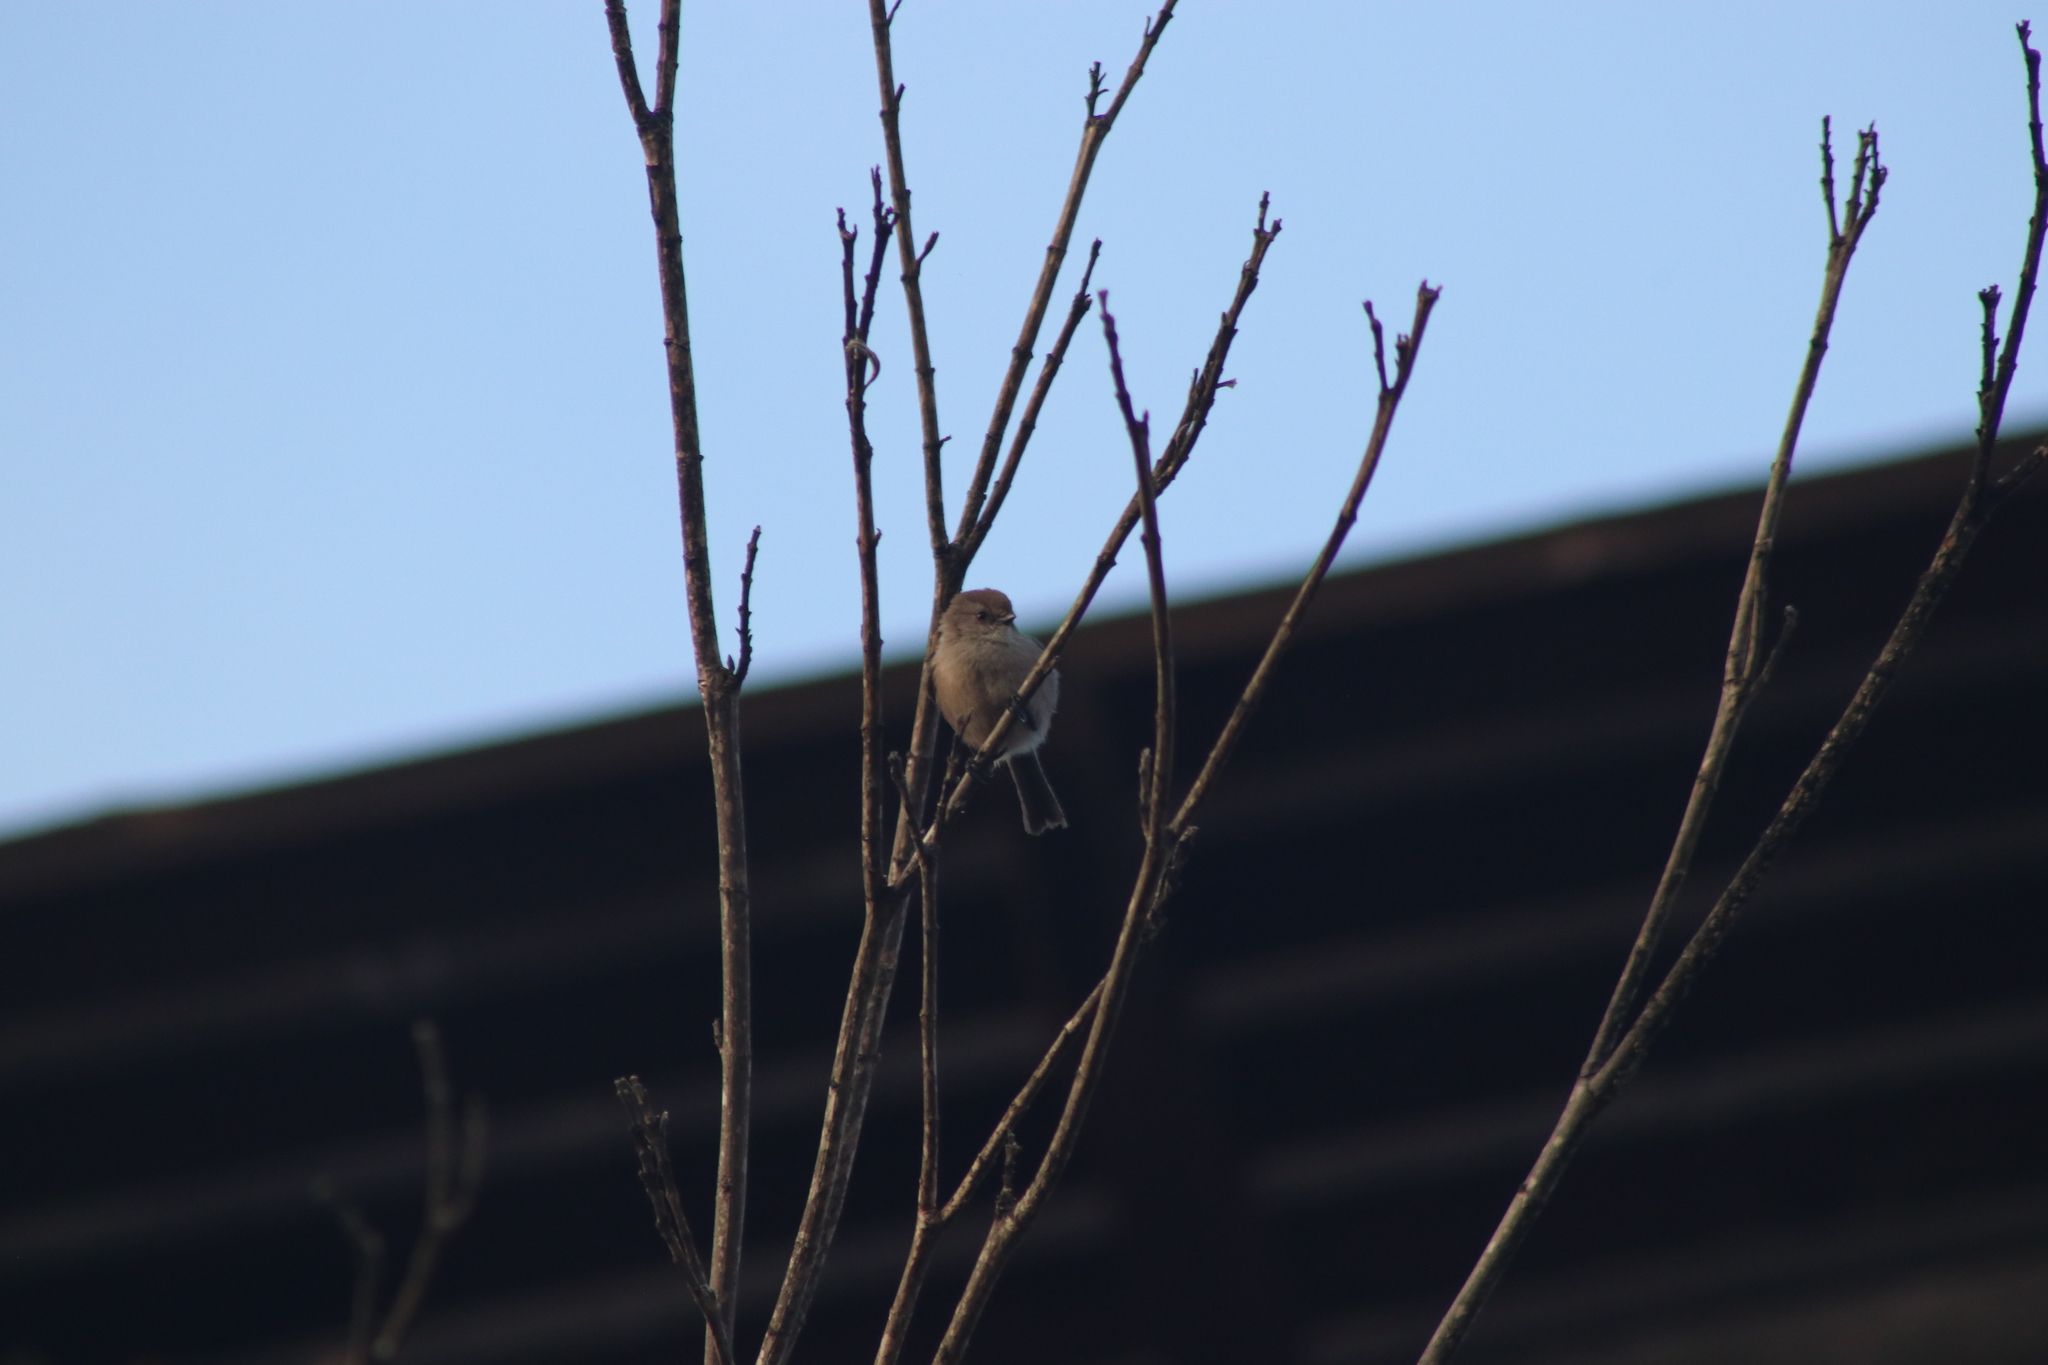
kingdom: Animalia
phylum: Chordata
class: Aves
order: Passeriformes
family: Aegithalidae
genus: Psaltriparus
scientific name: Psaltriparus minimus
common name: American bushtit
